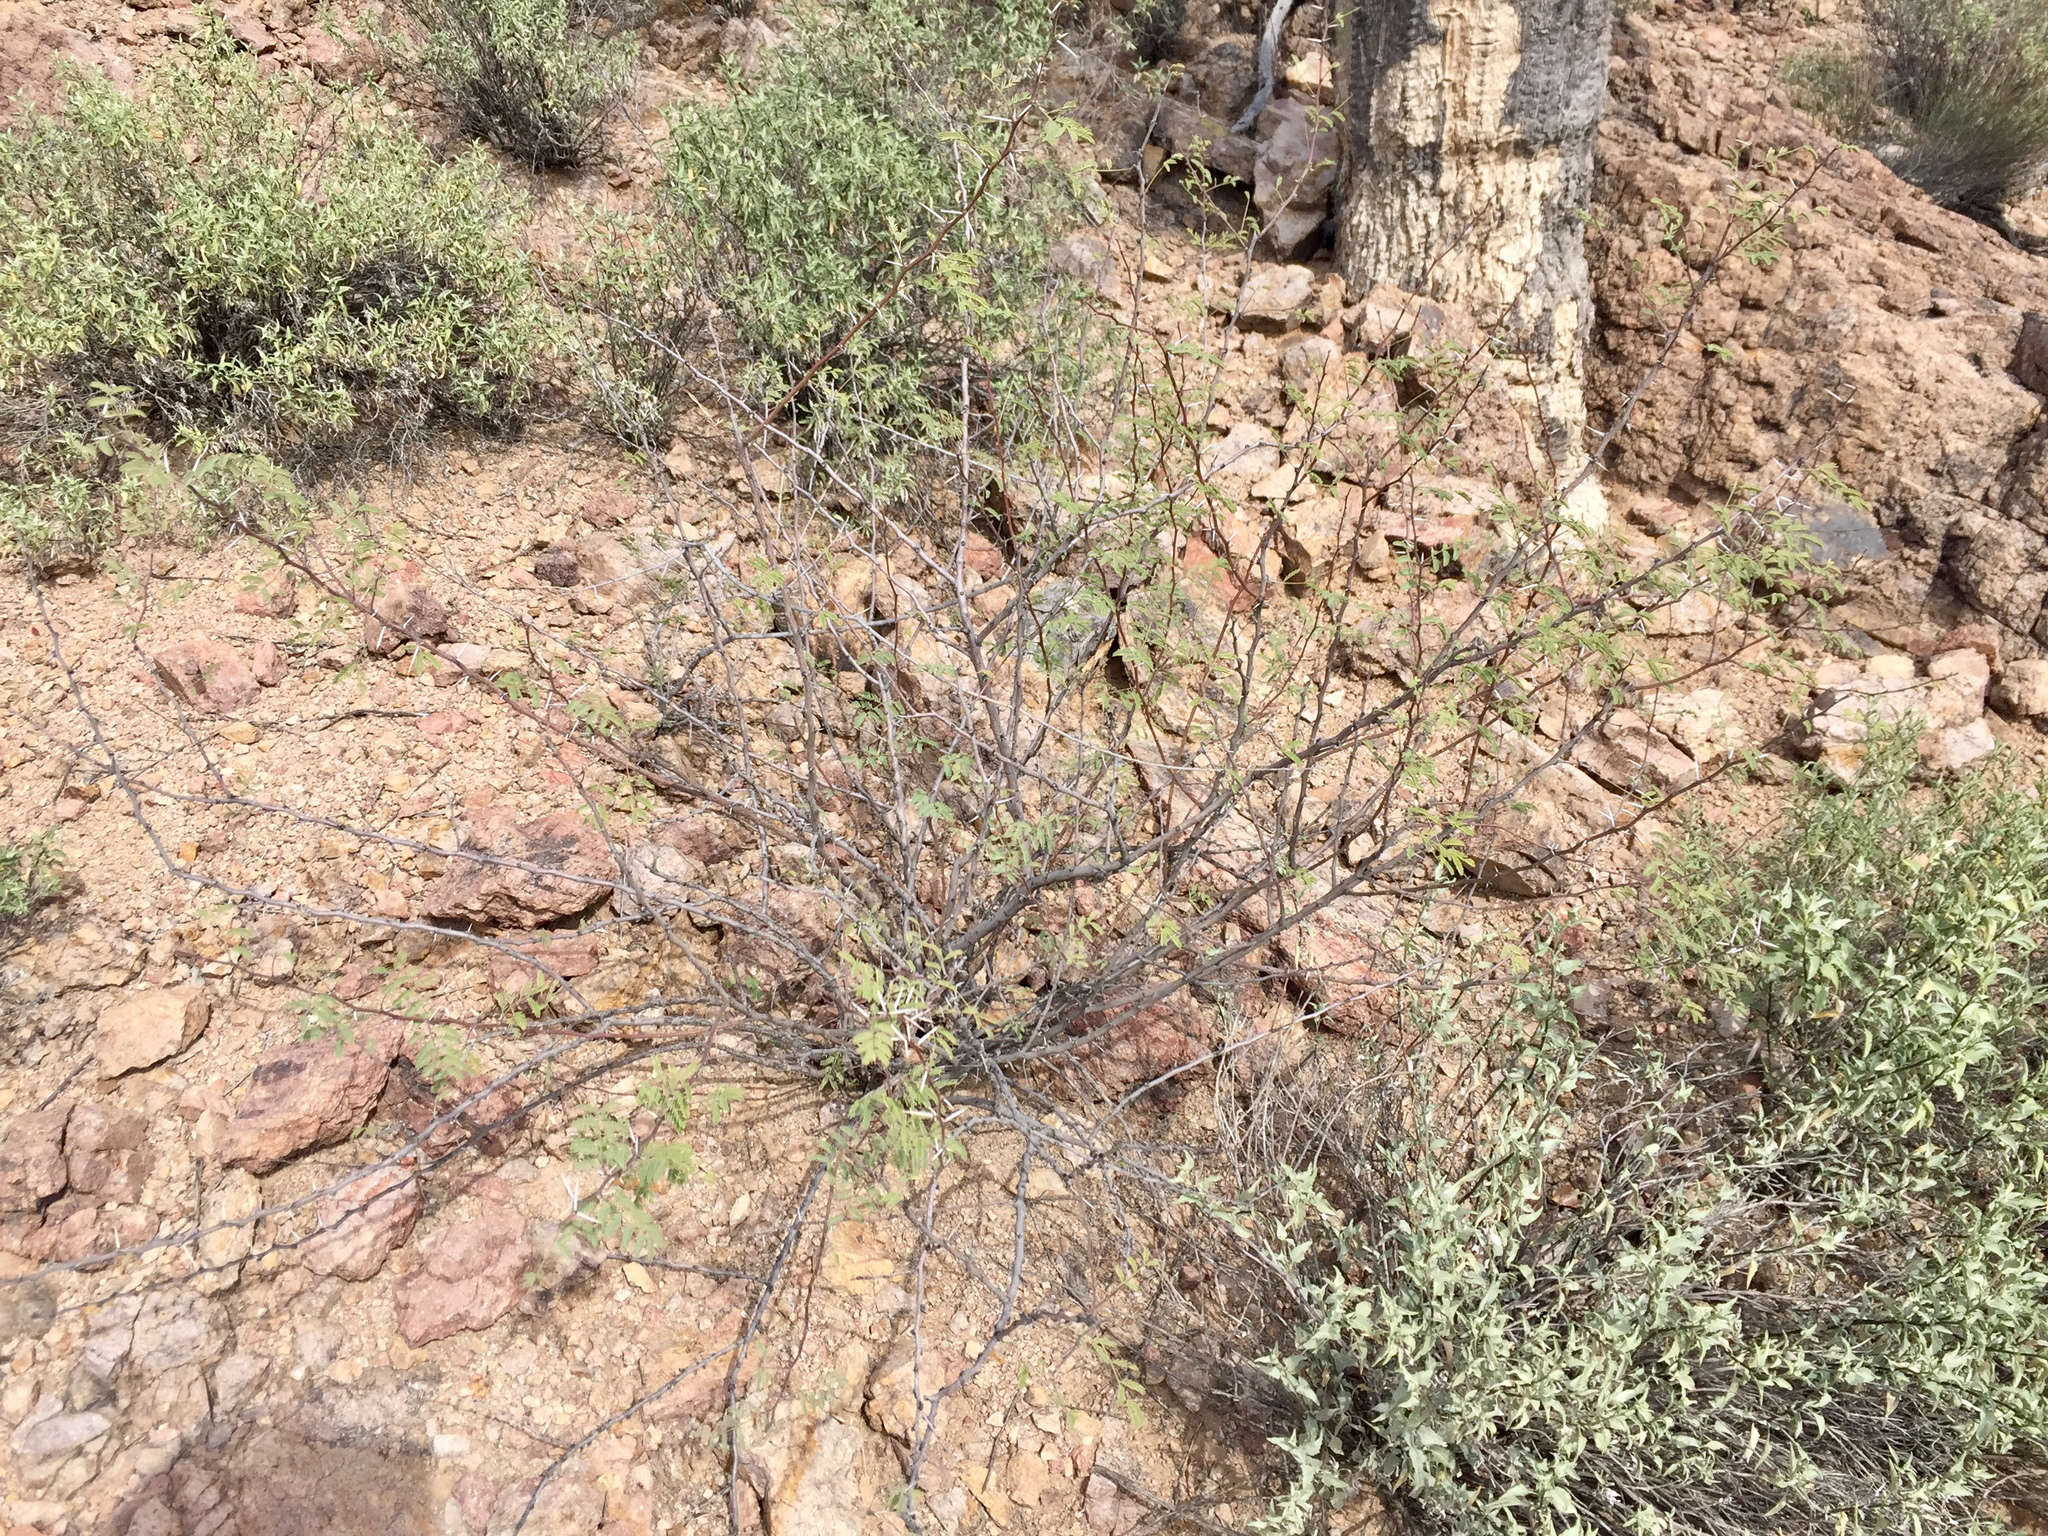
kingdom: Plantae
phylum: Tracheophyta
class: Magnoliopsida
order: Fabales
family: Fabaceae
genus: Vachellia
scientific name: Vachellia constricta
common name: Mescat acacia
